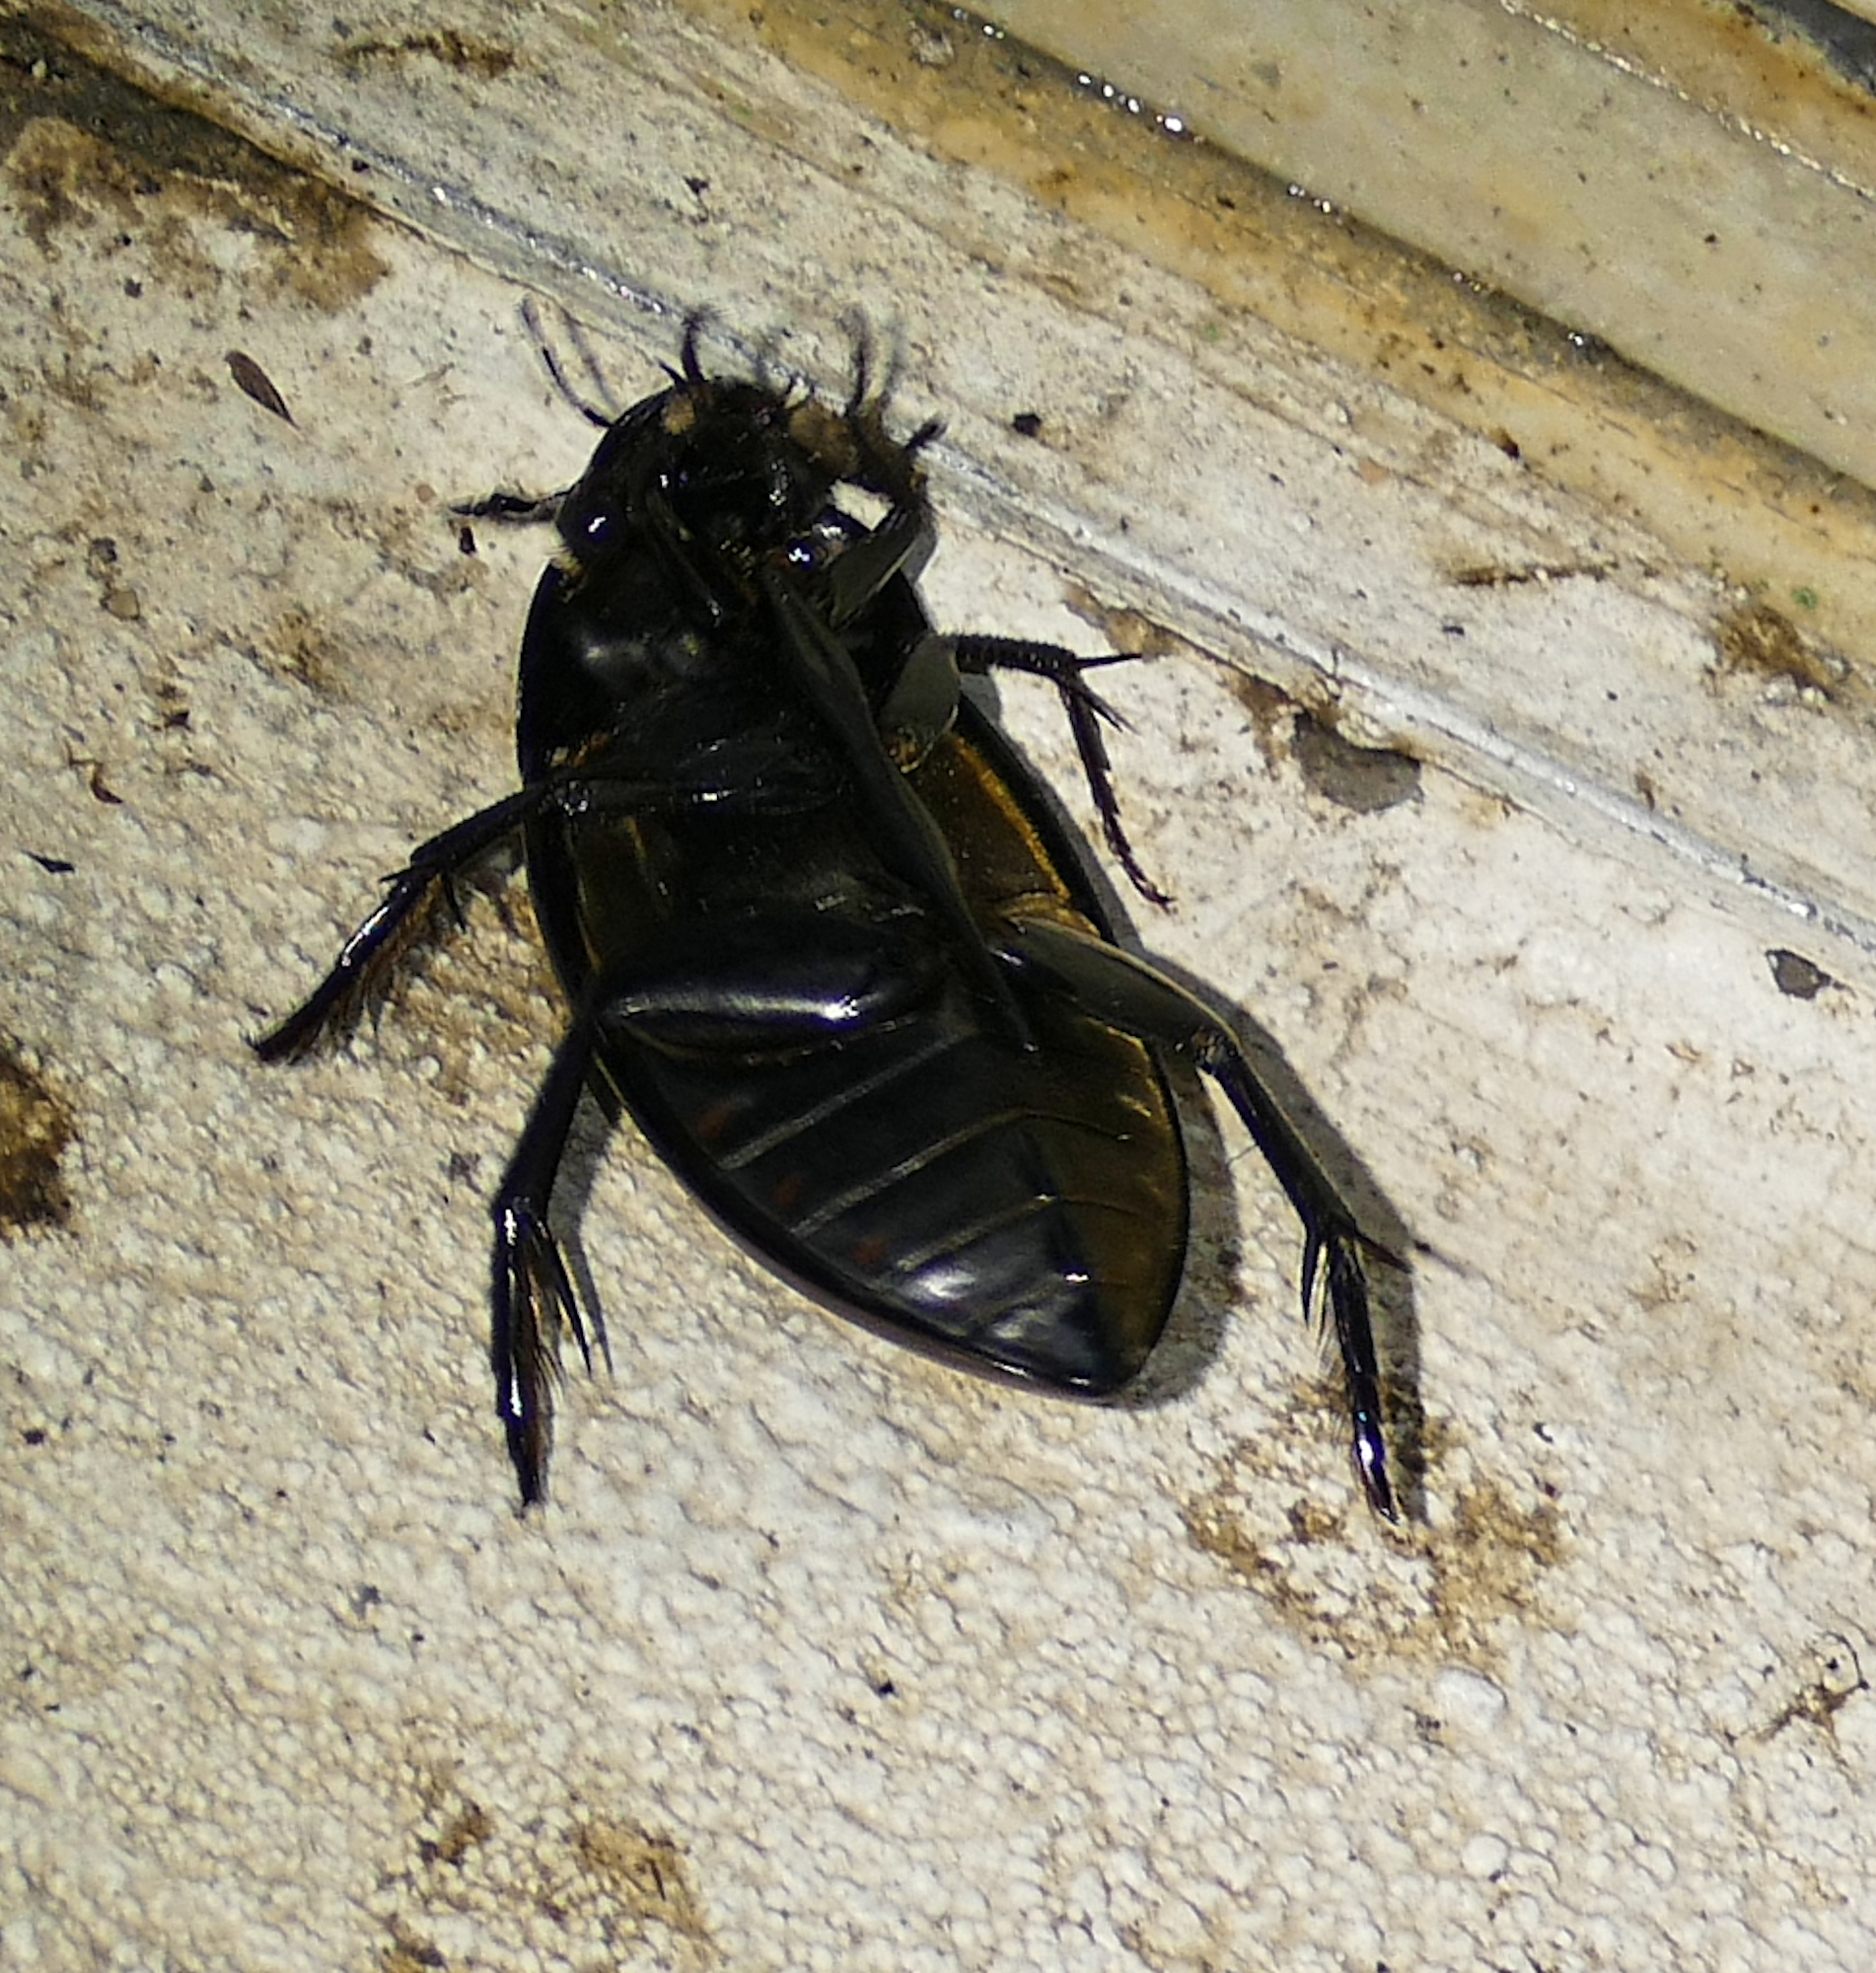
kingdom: Animalia
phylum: Arthropoda
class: Insecta
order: Coleoptera
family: Hydrophilidae
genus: Hydrophilus
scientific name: Hydrophilus ovatus
